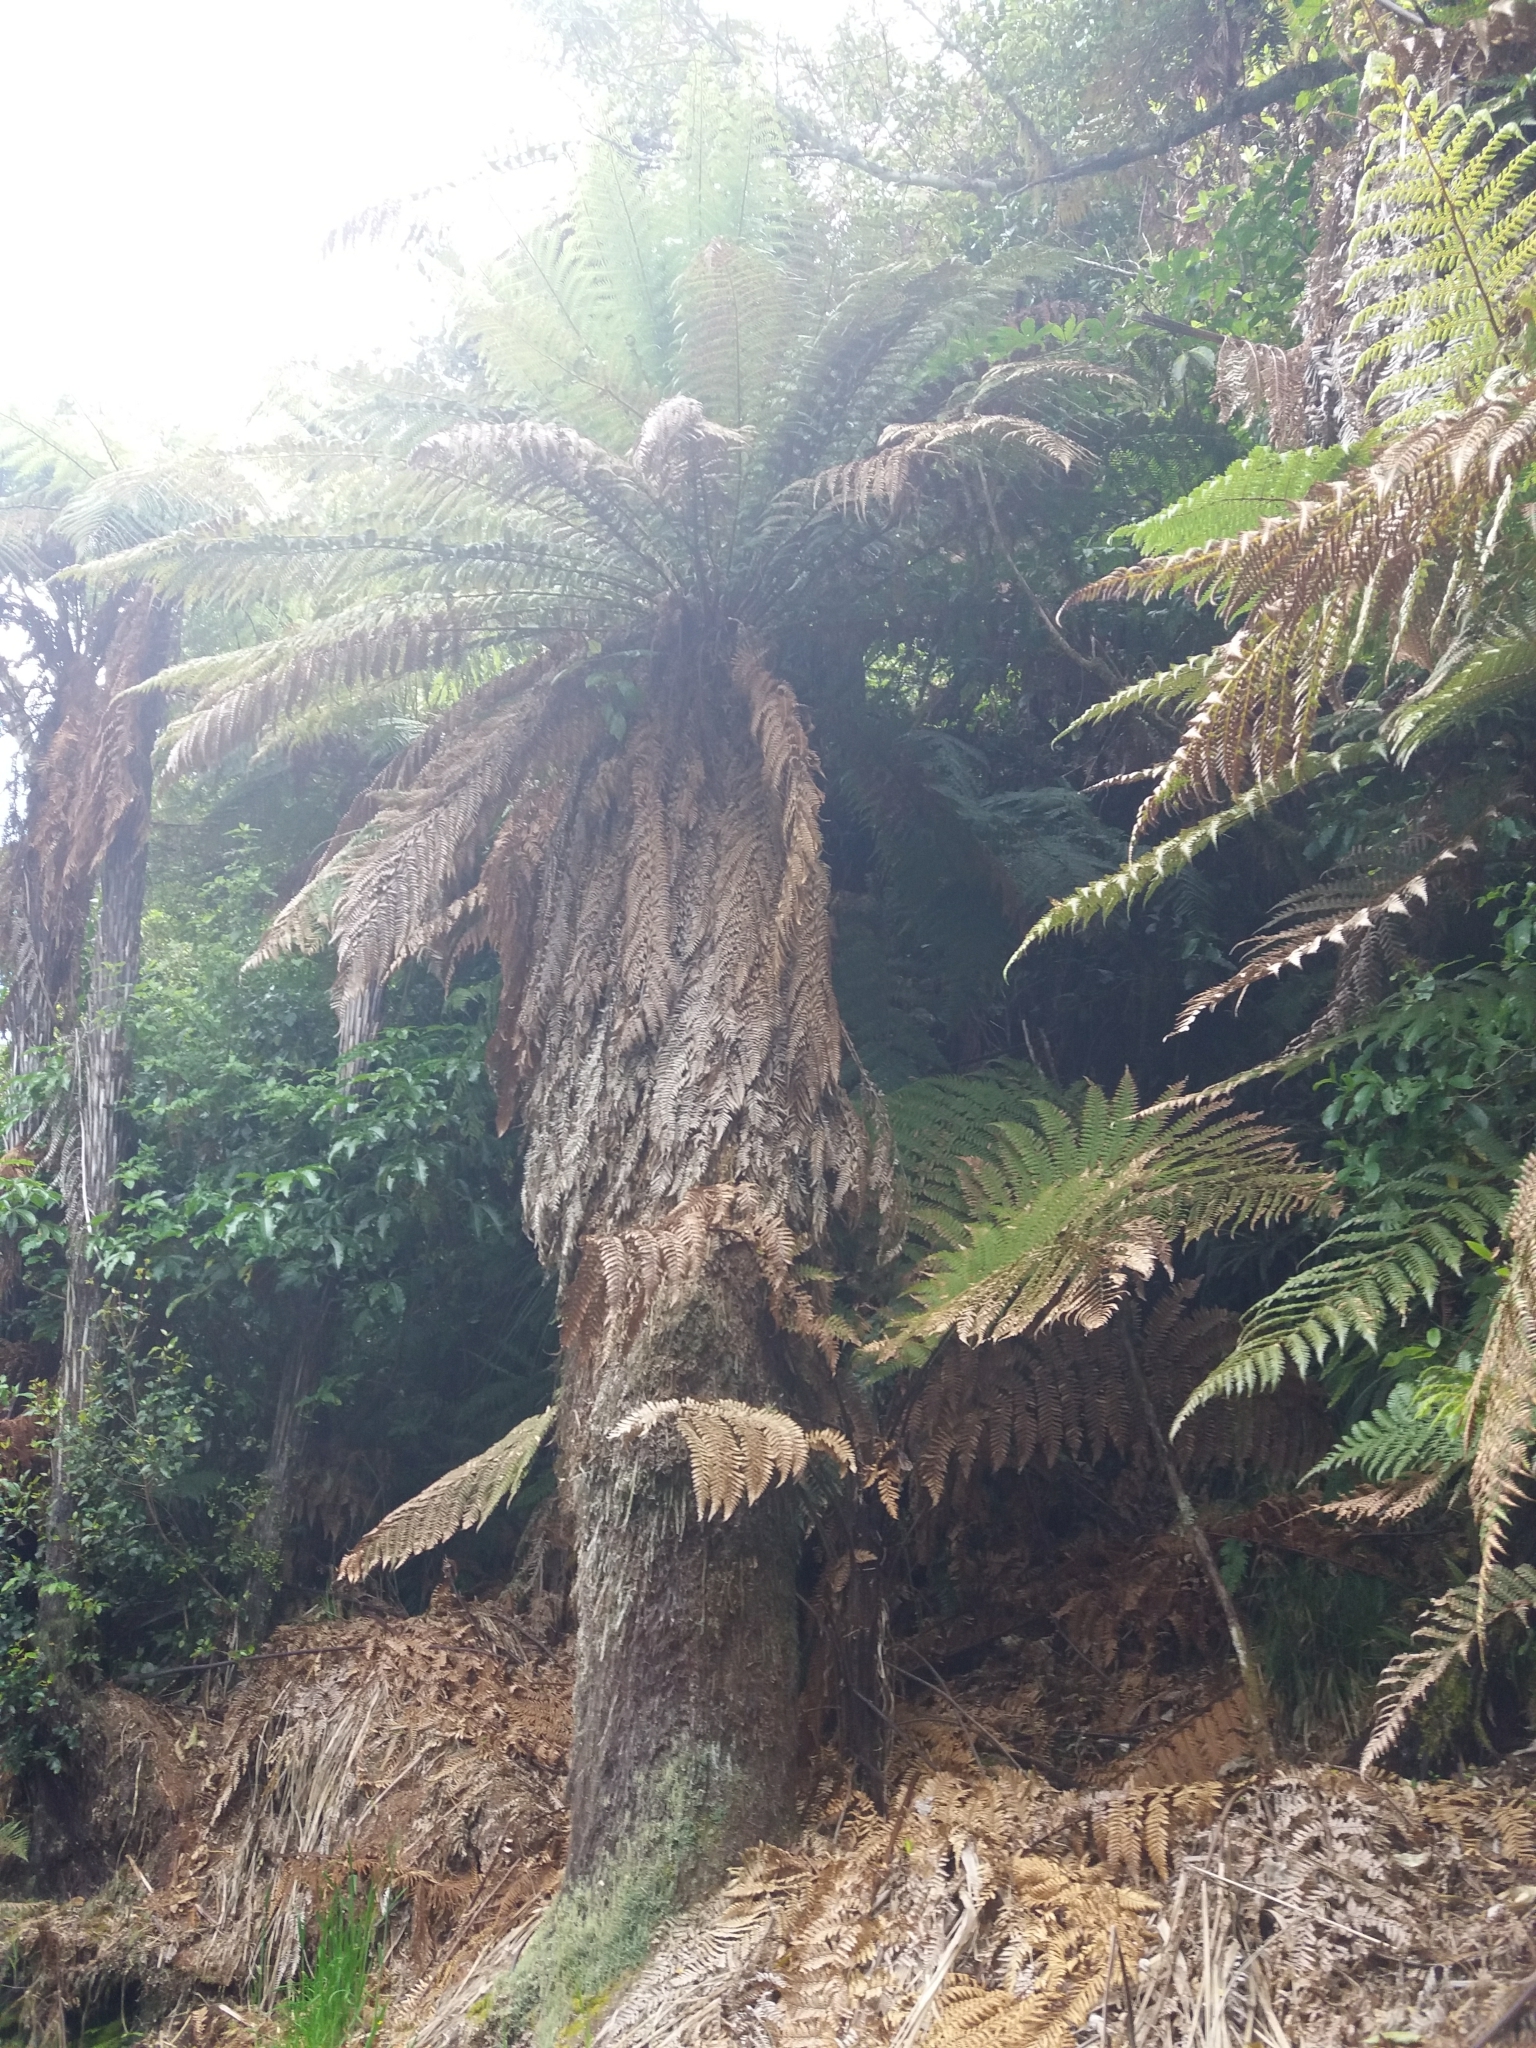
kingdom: Plantae
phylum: Tracheophyta
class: Polypodiopsida
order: Cyatheales
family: Dicksoniaceae
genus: Dicksonia
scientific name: Dicksonia fibrosa
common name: Golden tree fern
